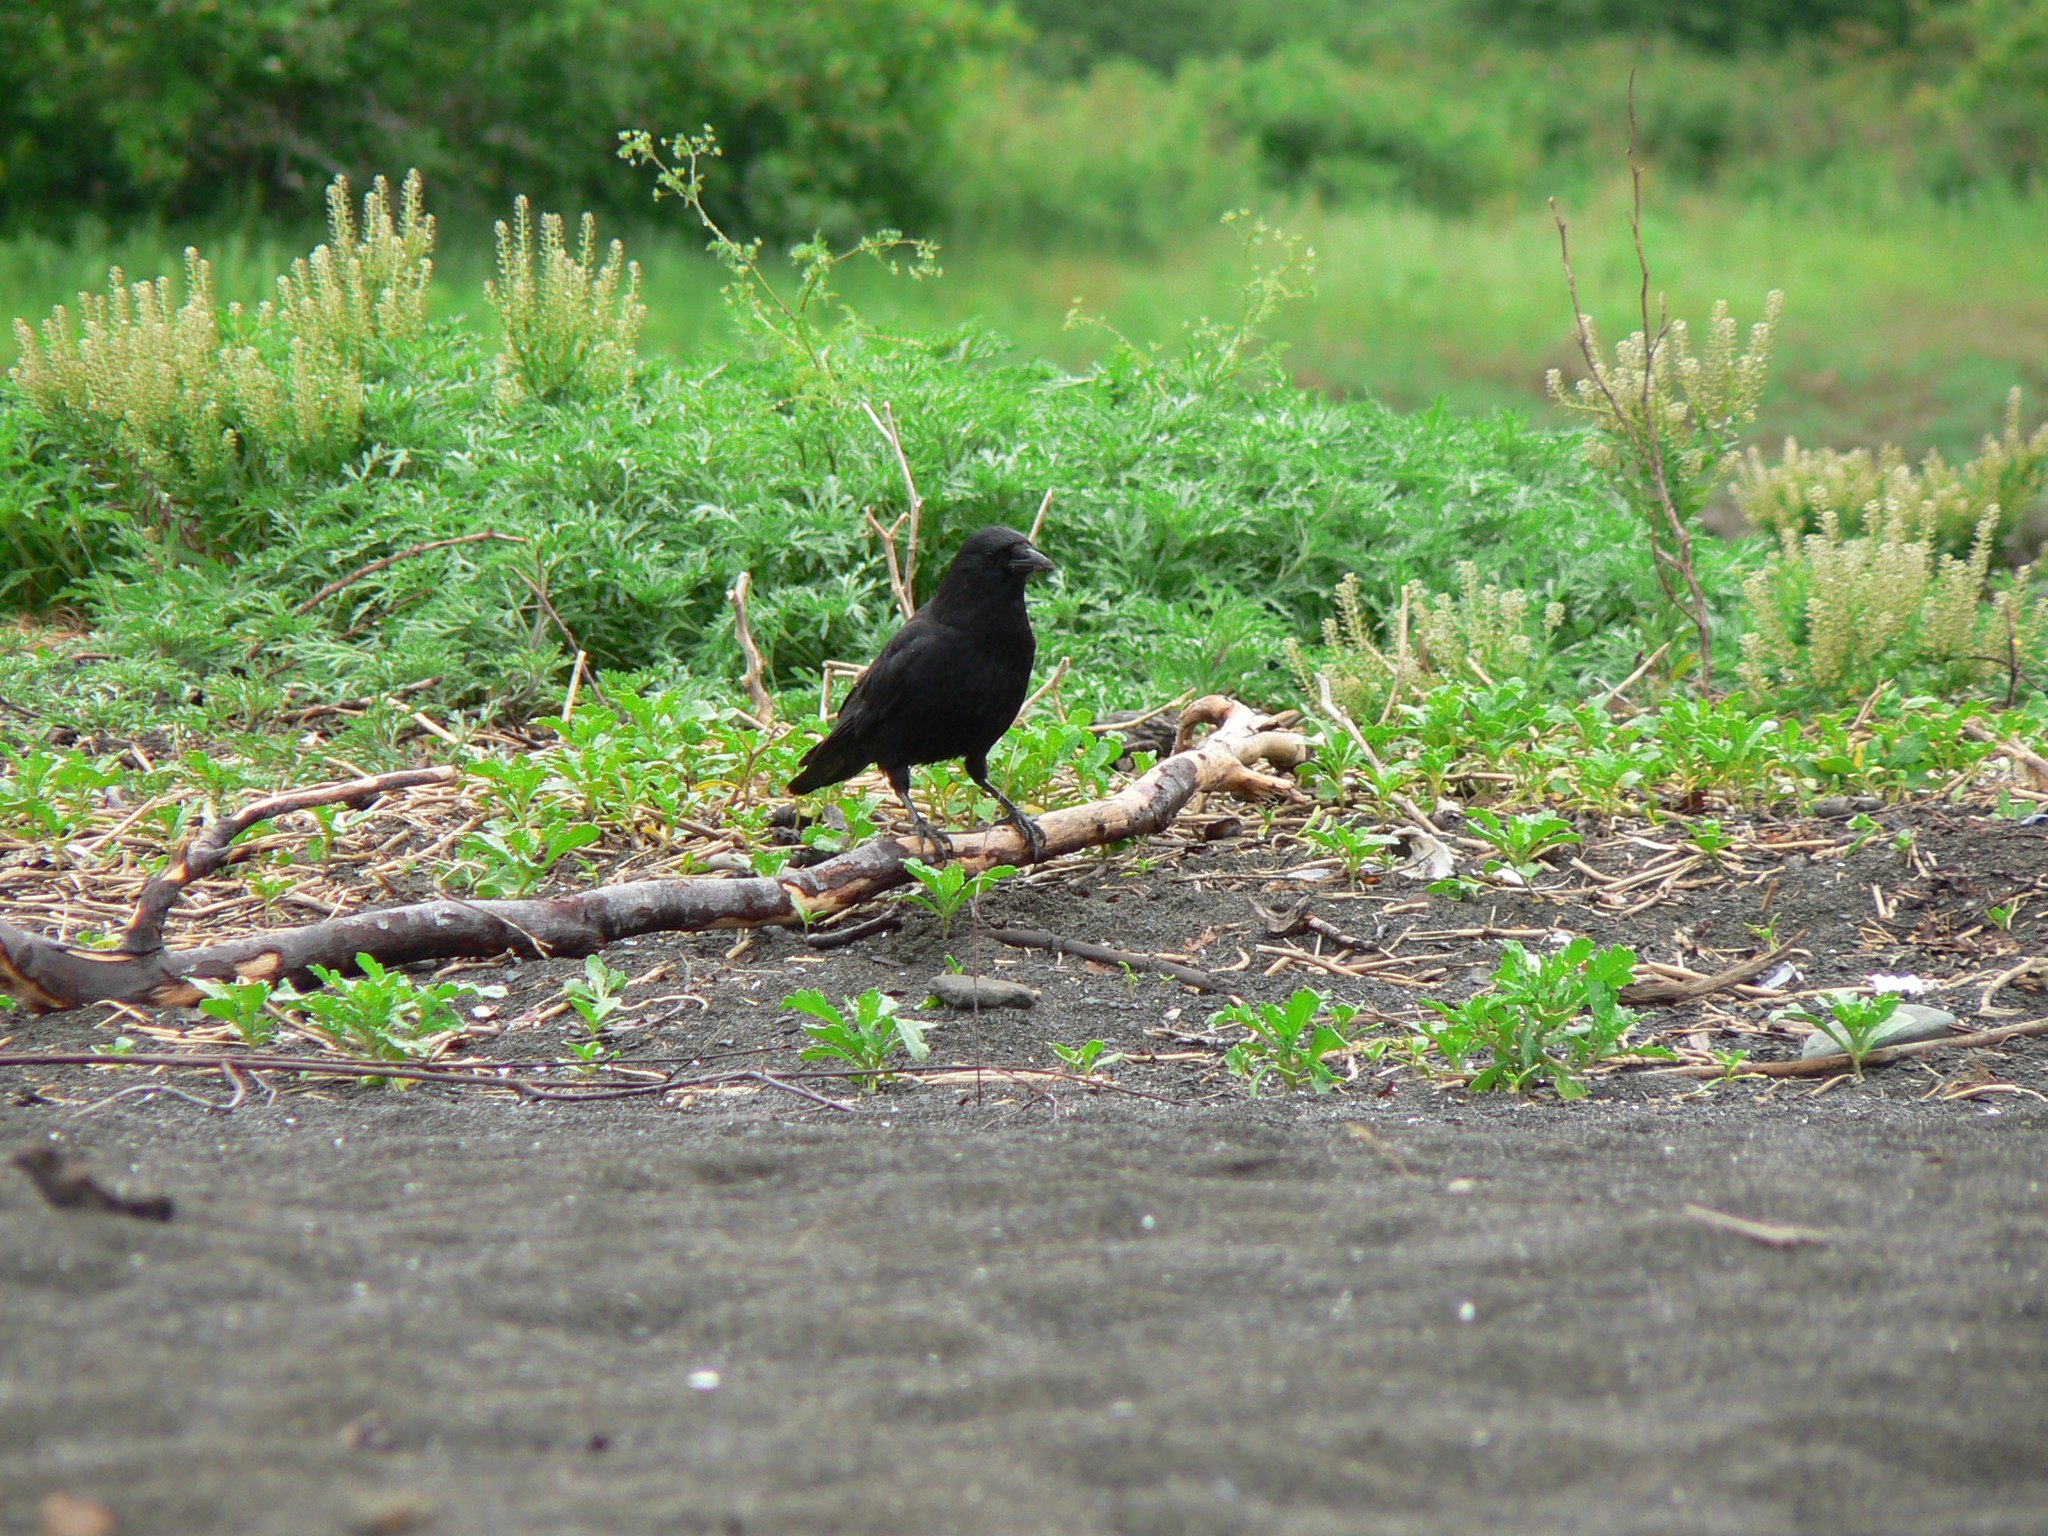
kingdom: Animalia
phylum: Chordata
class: Aves
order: Passeriformes
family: Corvidae
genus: Corvus
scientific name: Corvus brachyrhynchos
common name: American crow
